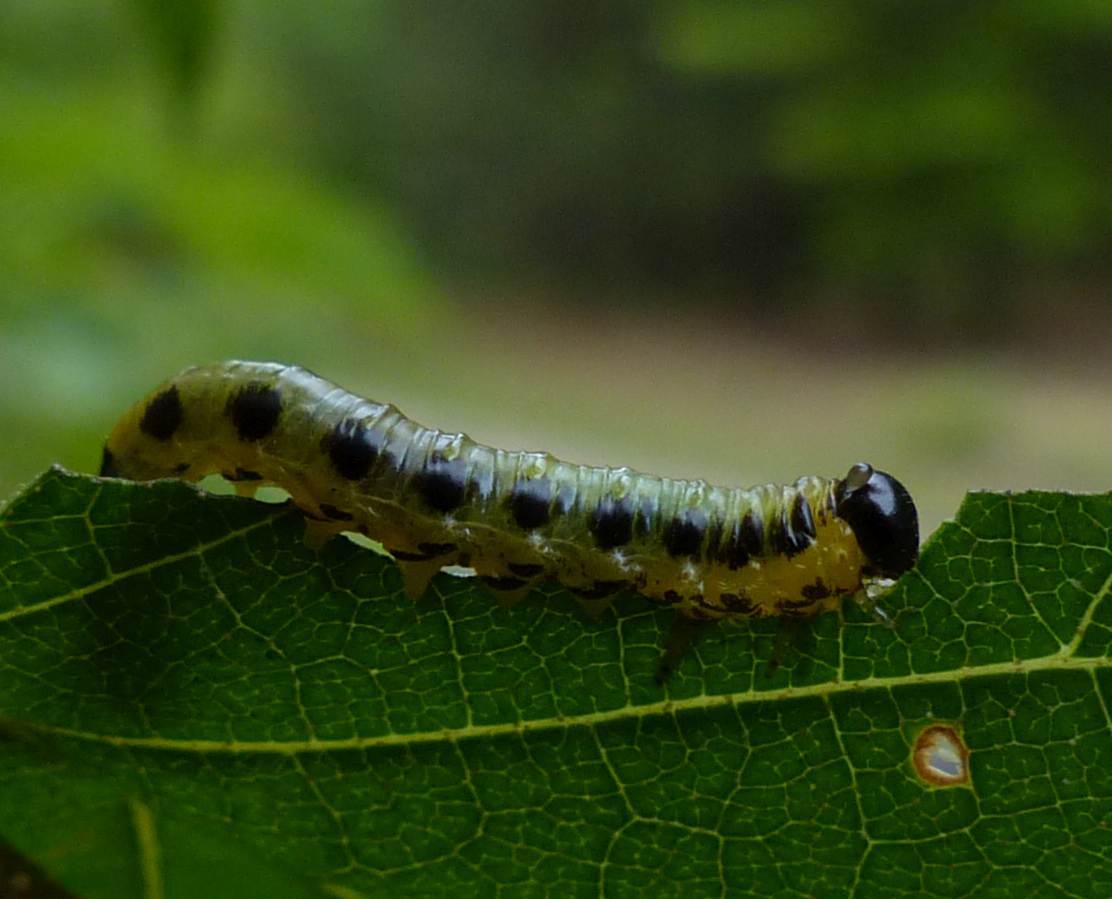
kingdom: Animalia
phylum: Arthropoda
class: Insecta
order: Hymenoptera
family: Tenthredinidae
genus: Nematus
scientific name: Nematus
